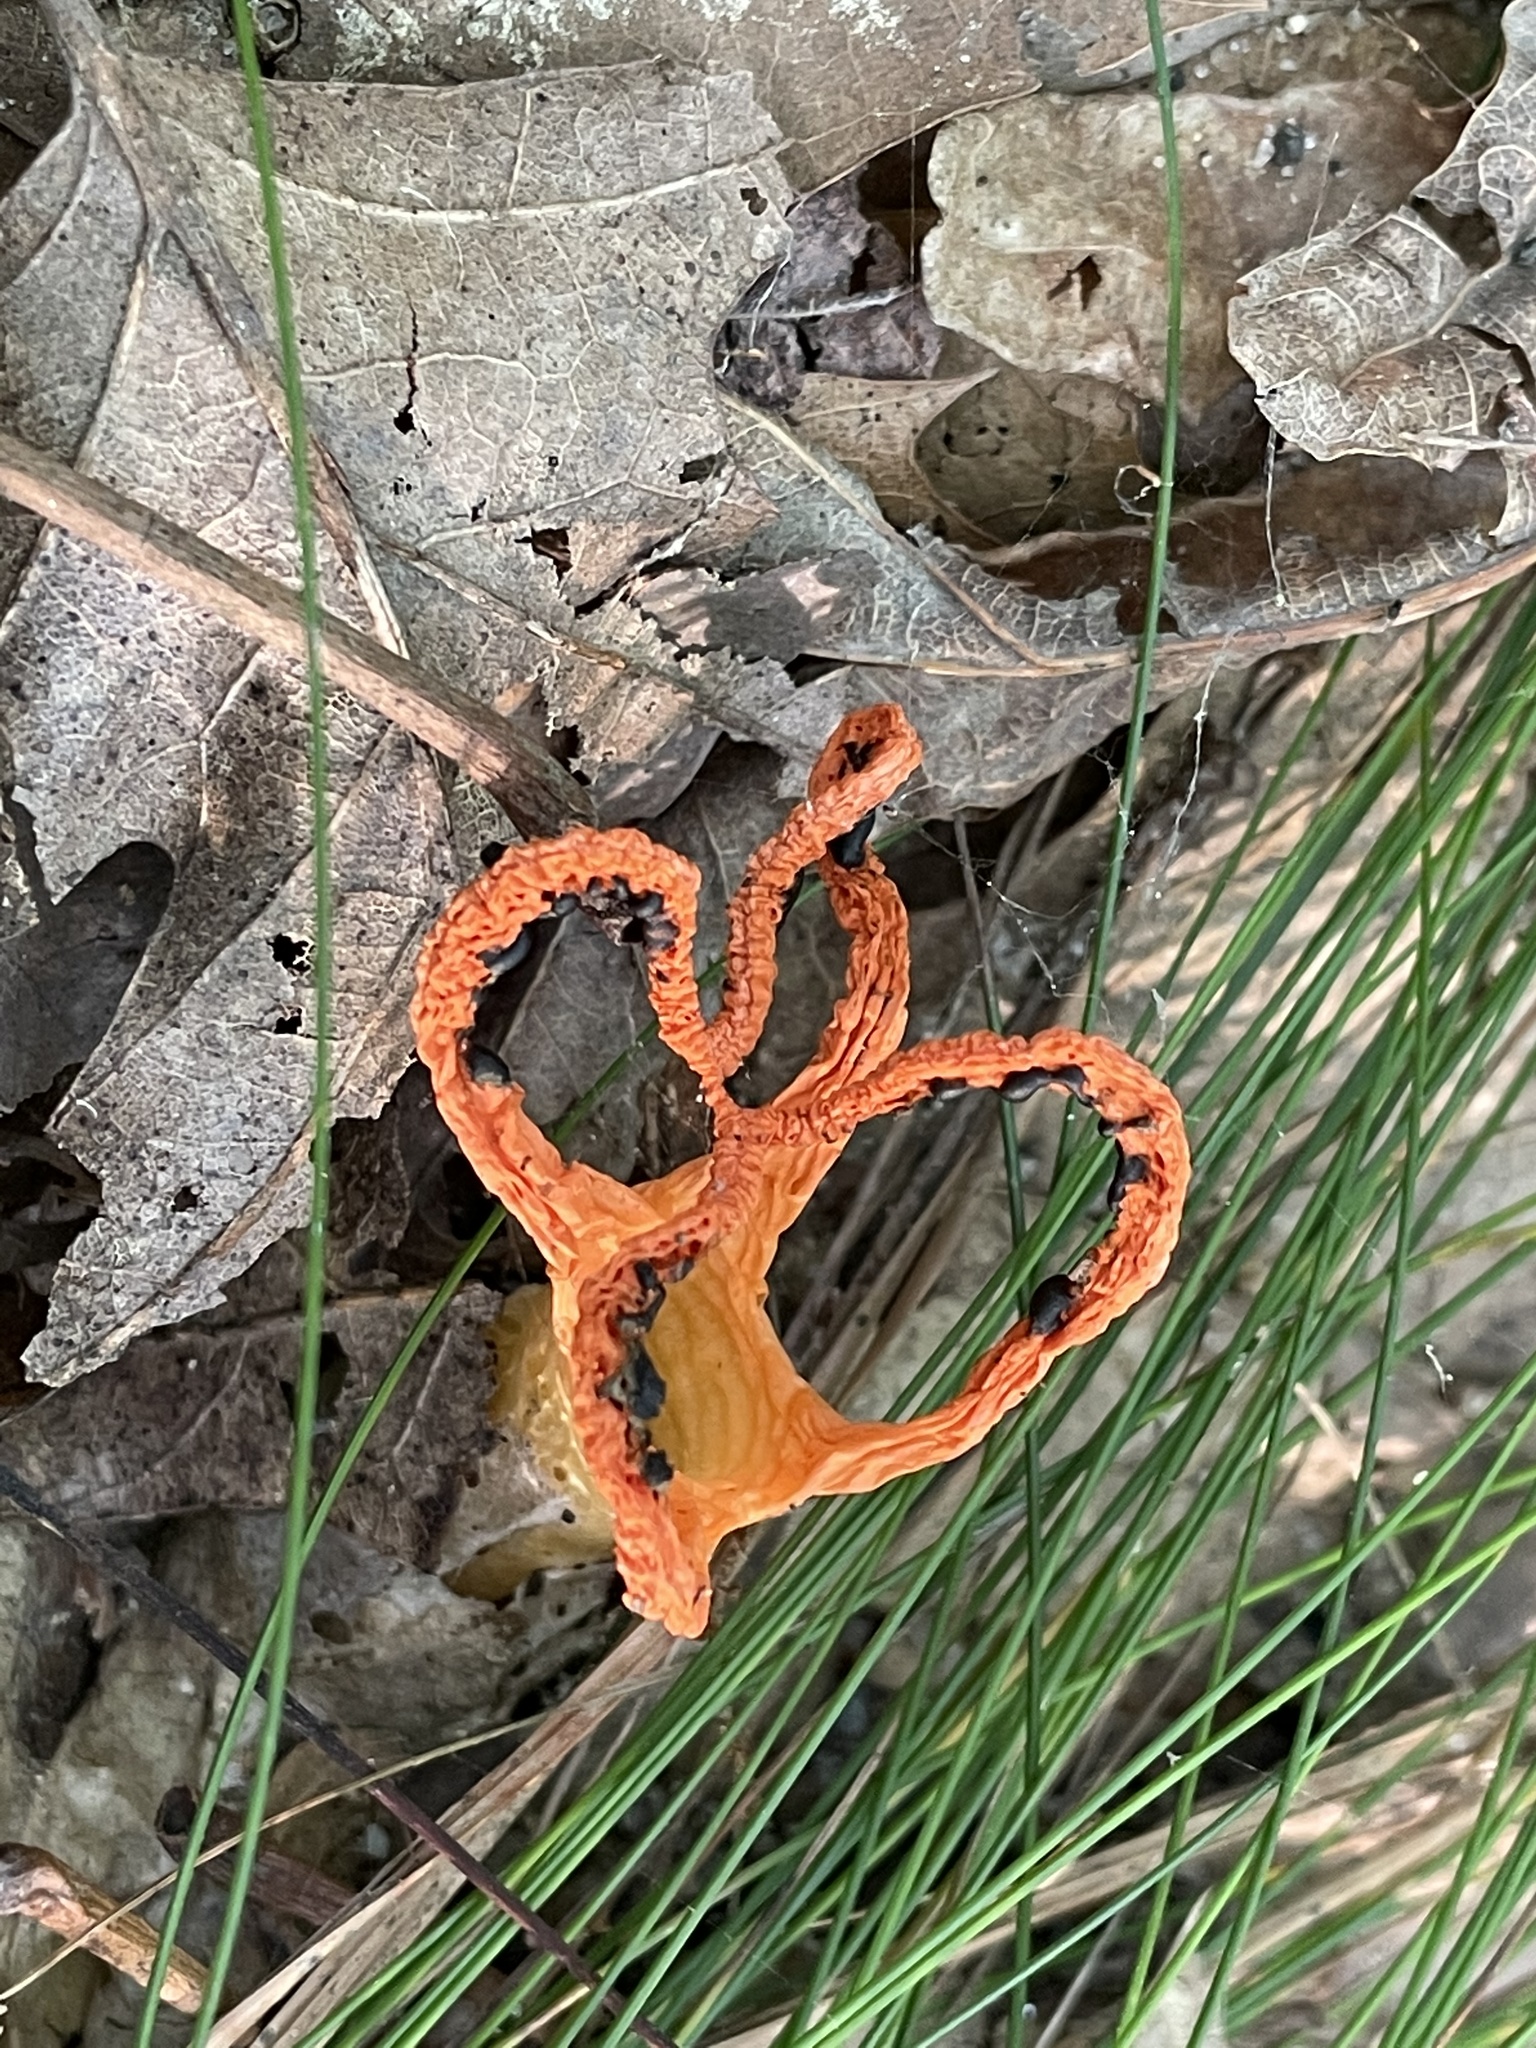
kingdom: Fungi
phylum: Basidiomycota
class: Agaricomycetes
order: Phallales
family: Phallaceae
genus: Pseudocolus
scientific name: Pseudocolus fusiformis
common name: Stinky squid
